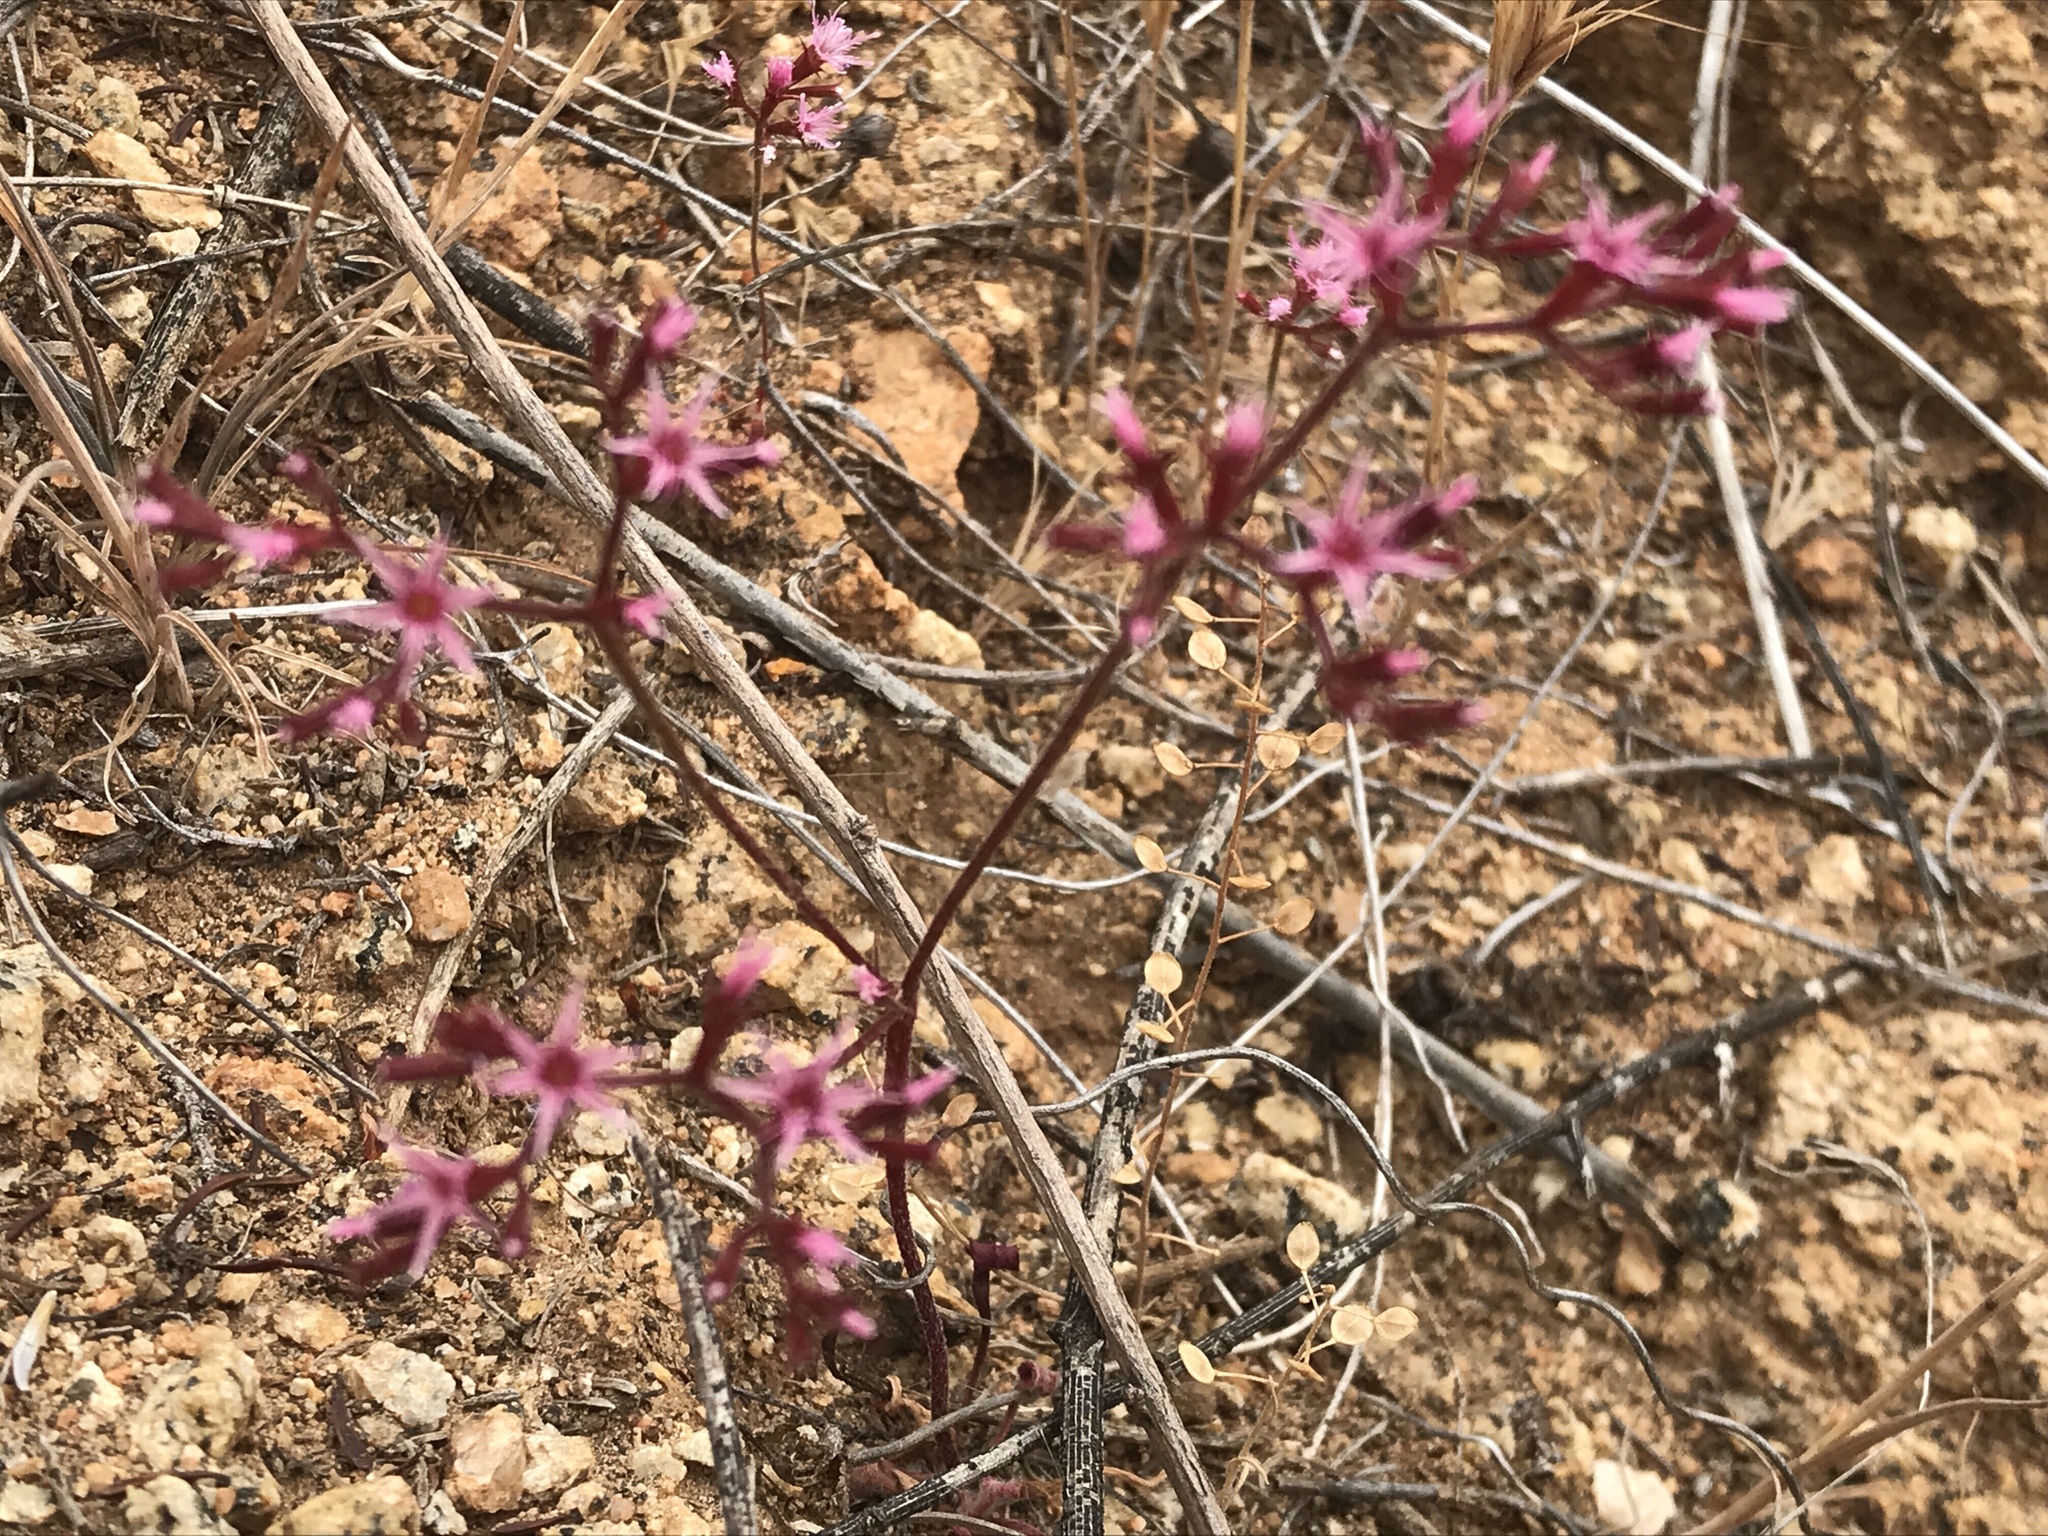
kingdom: Plantae
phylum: Tracheophyta
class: Magnoliopsida
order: Caryophyllales
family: Polygonaceae
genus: Chorizanthe
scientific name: Chorizanthe fimbriata
